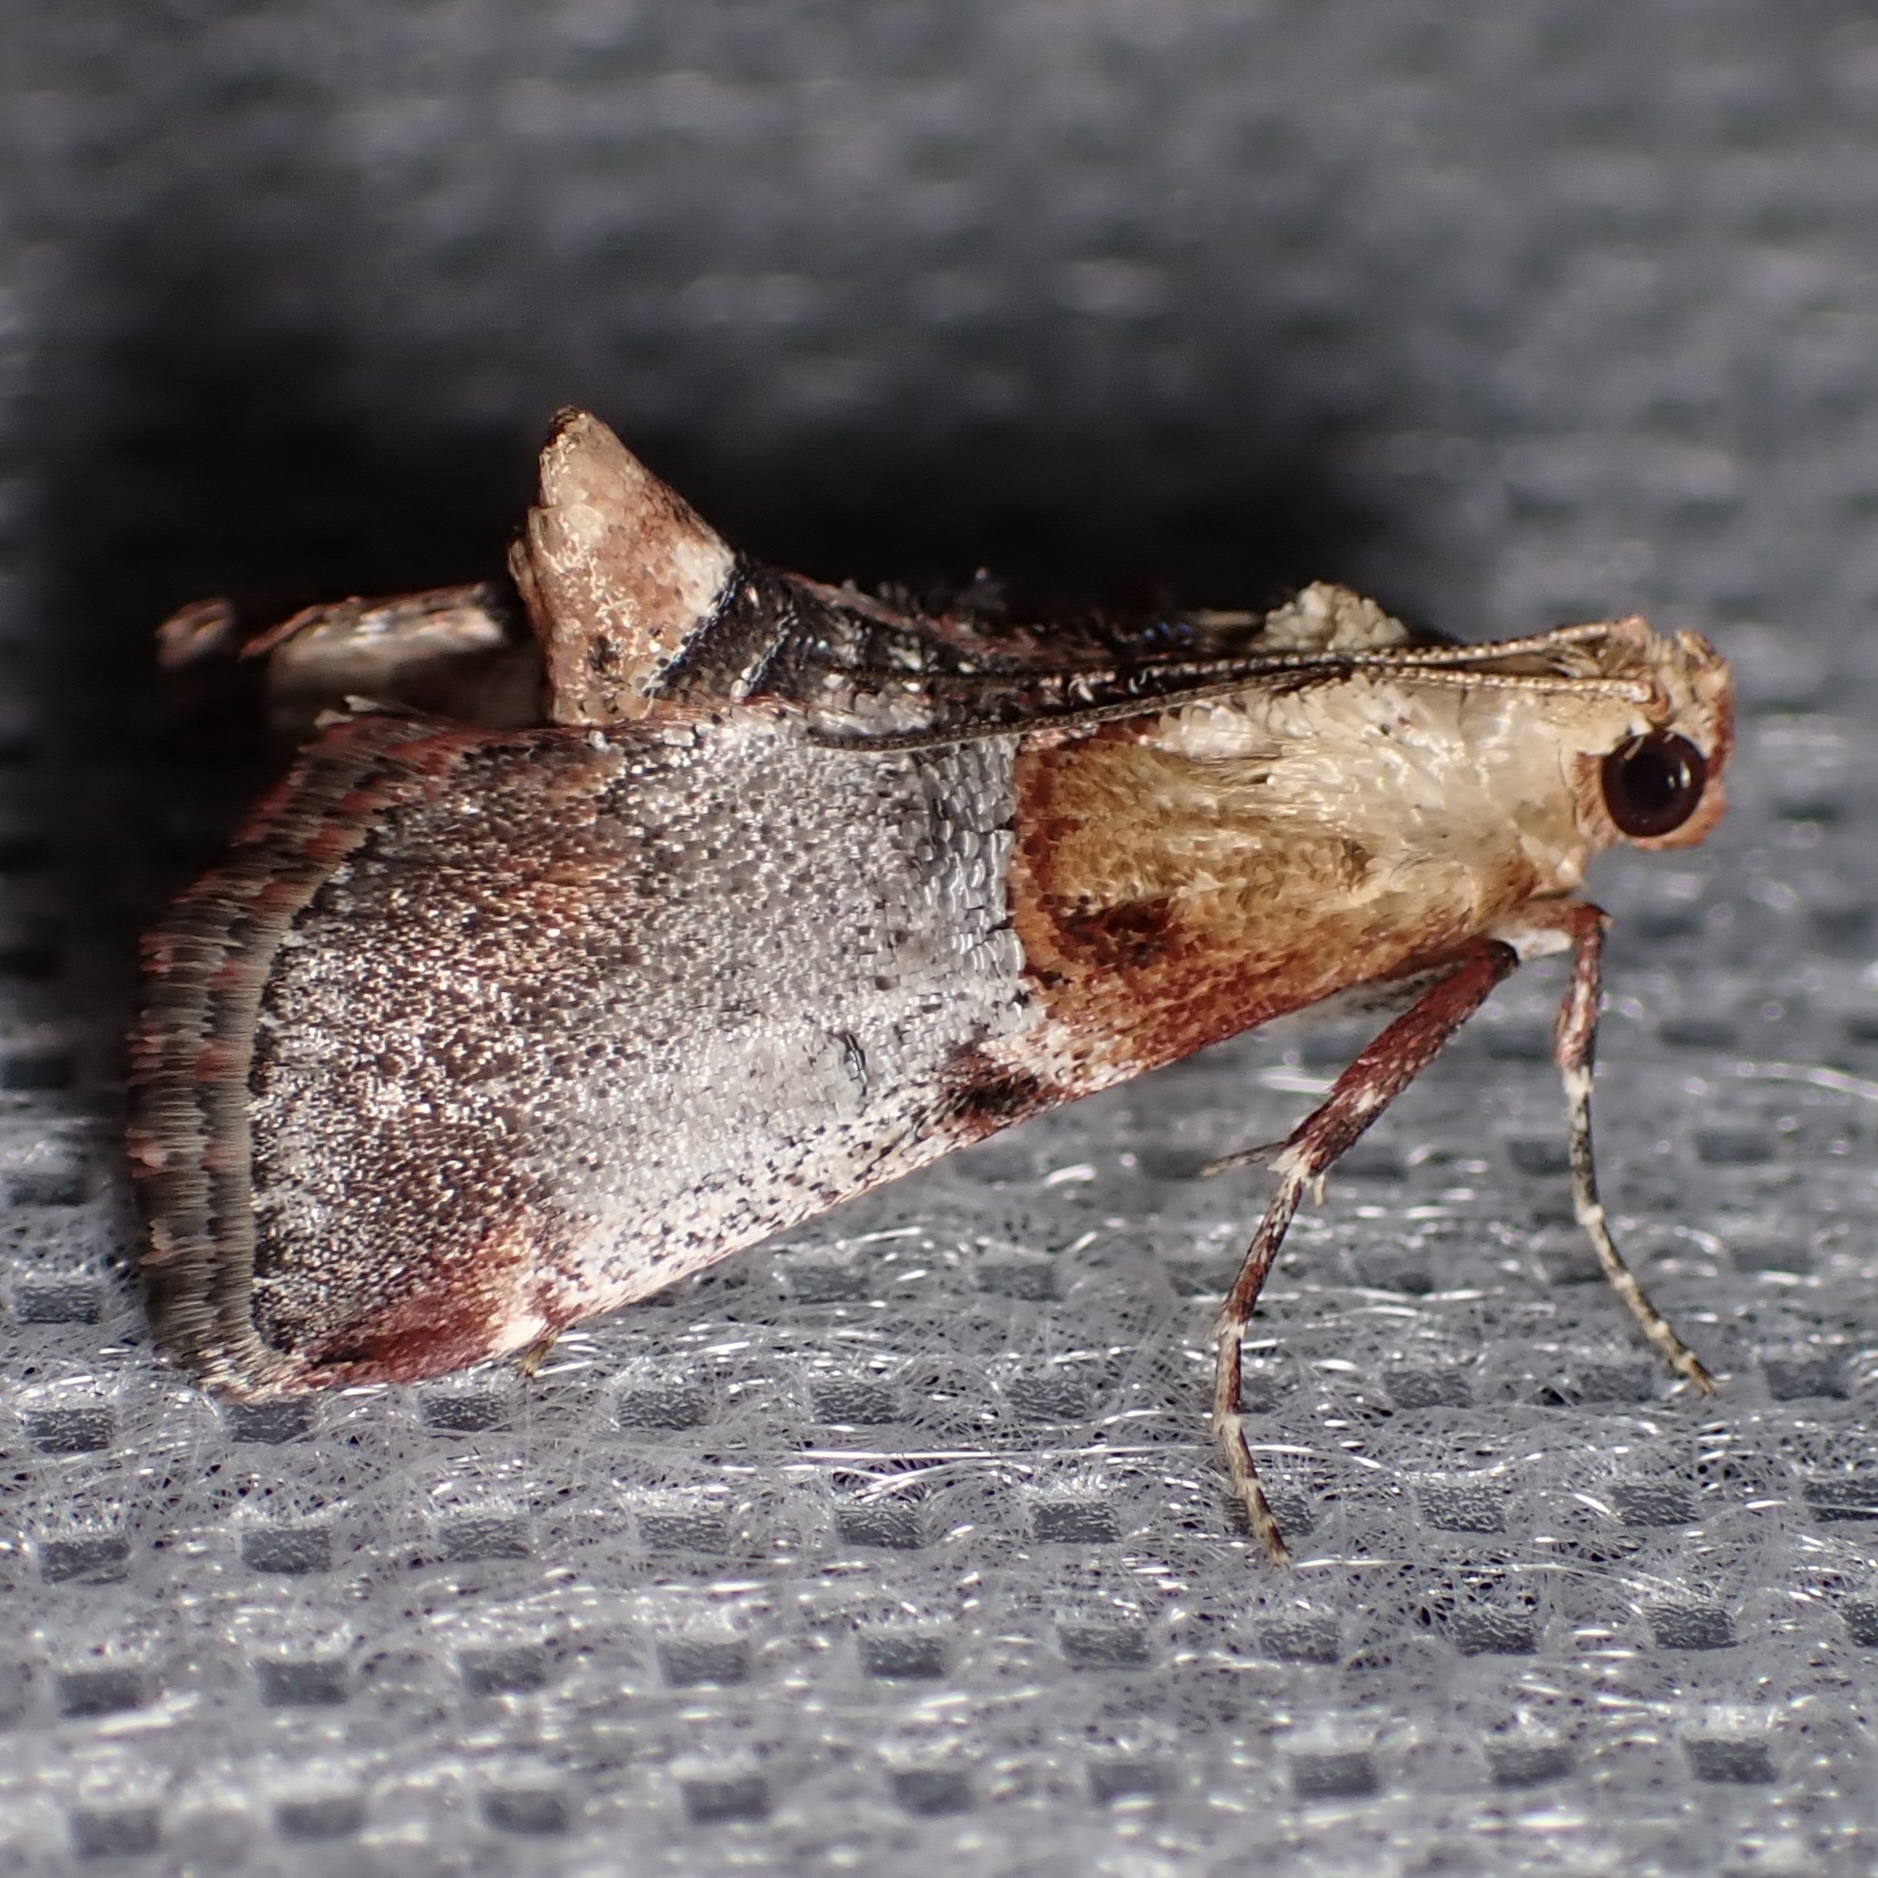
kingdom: Animalia
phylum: Arthropoda
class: Insecta
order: Lepidoptera
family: Pyralidae
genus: Cacozelia
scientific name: Cacozelia basiochrealis
